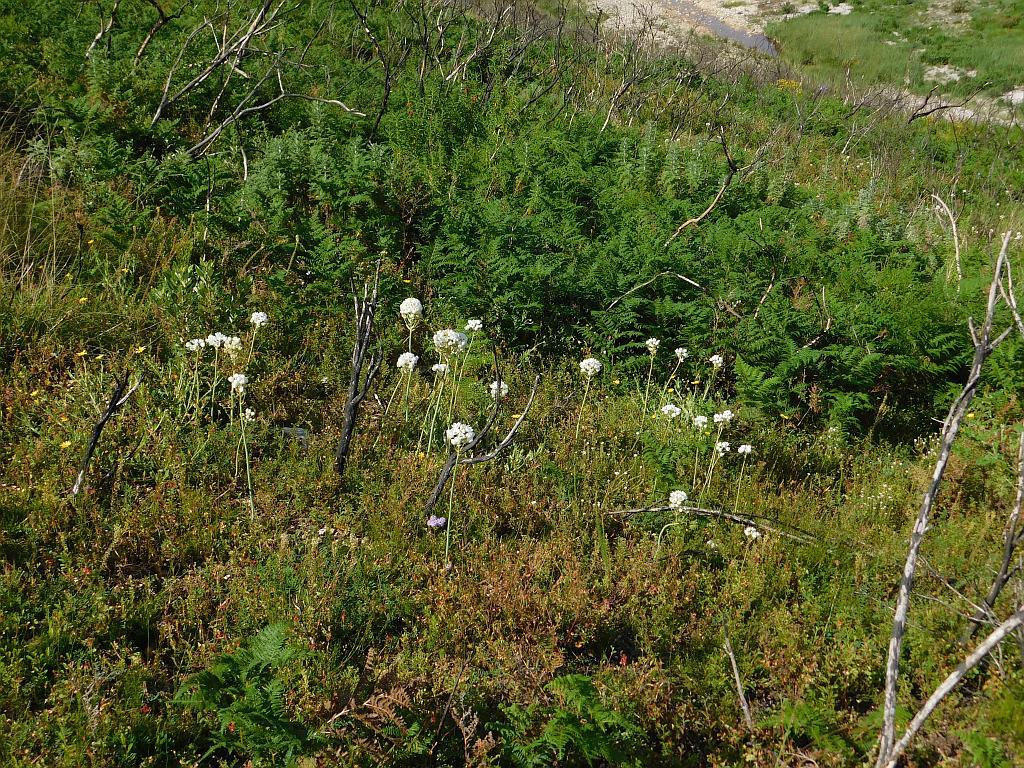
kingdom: Plantae
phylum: Tracheophyta
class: Liliopsida
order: Asparagales
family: Asparagaceae
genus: Ornithogalum
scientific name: Ornithogalum thyrsoides
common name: Chincherinchee
